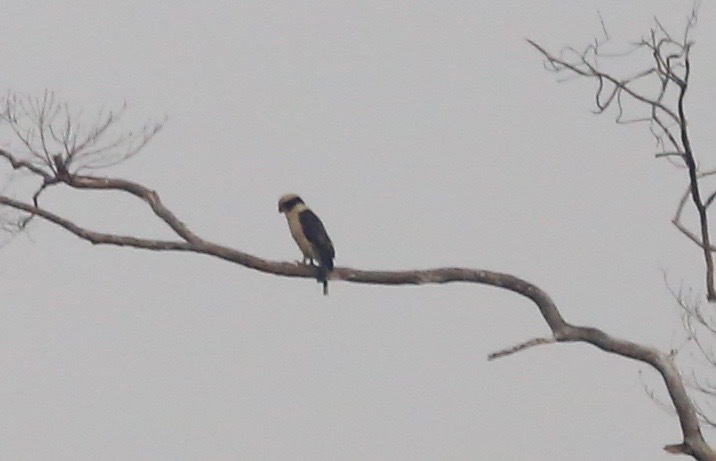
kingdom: Animalia
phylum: Chordata
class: Aves
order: Falconiformes
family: Falconidae
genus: Herpetotheres
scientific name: Herpetotheres cachinnans
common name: Laughing falcon
